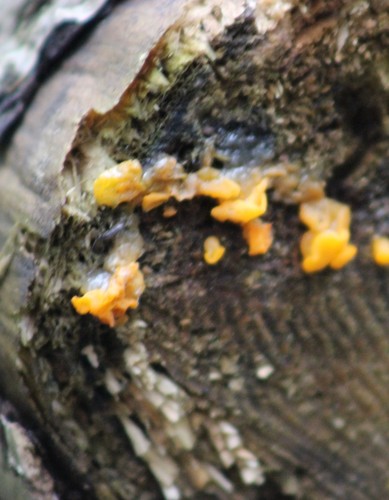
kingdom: Fungi
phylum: Basidiomycota
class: Dacrymycetes
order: Dacrymycetales
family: Dacrymycetaceae
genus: Dacrymyces
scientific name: Dacrymyces chrysospermus
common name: Orange jelly spot
